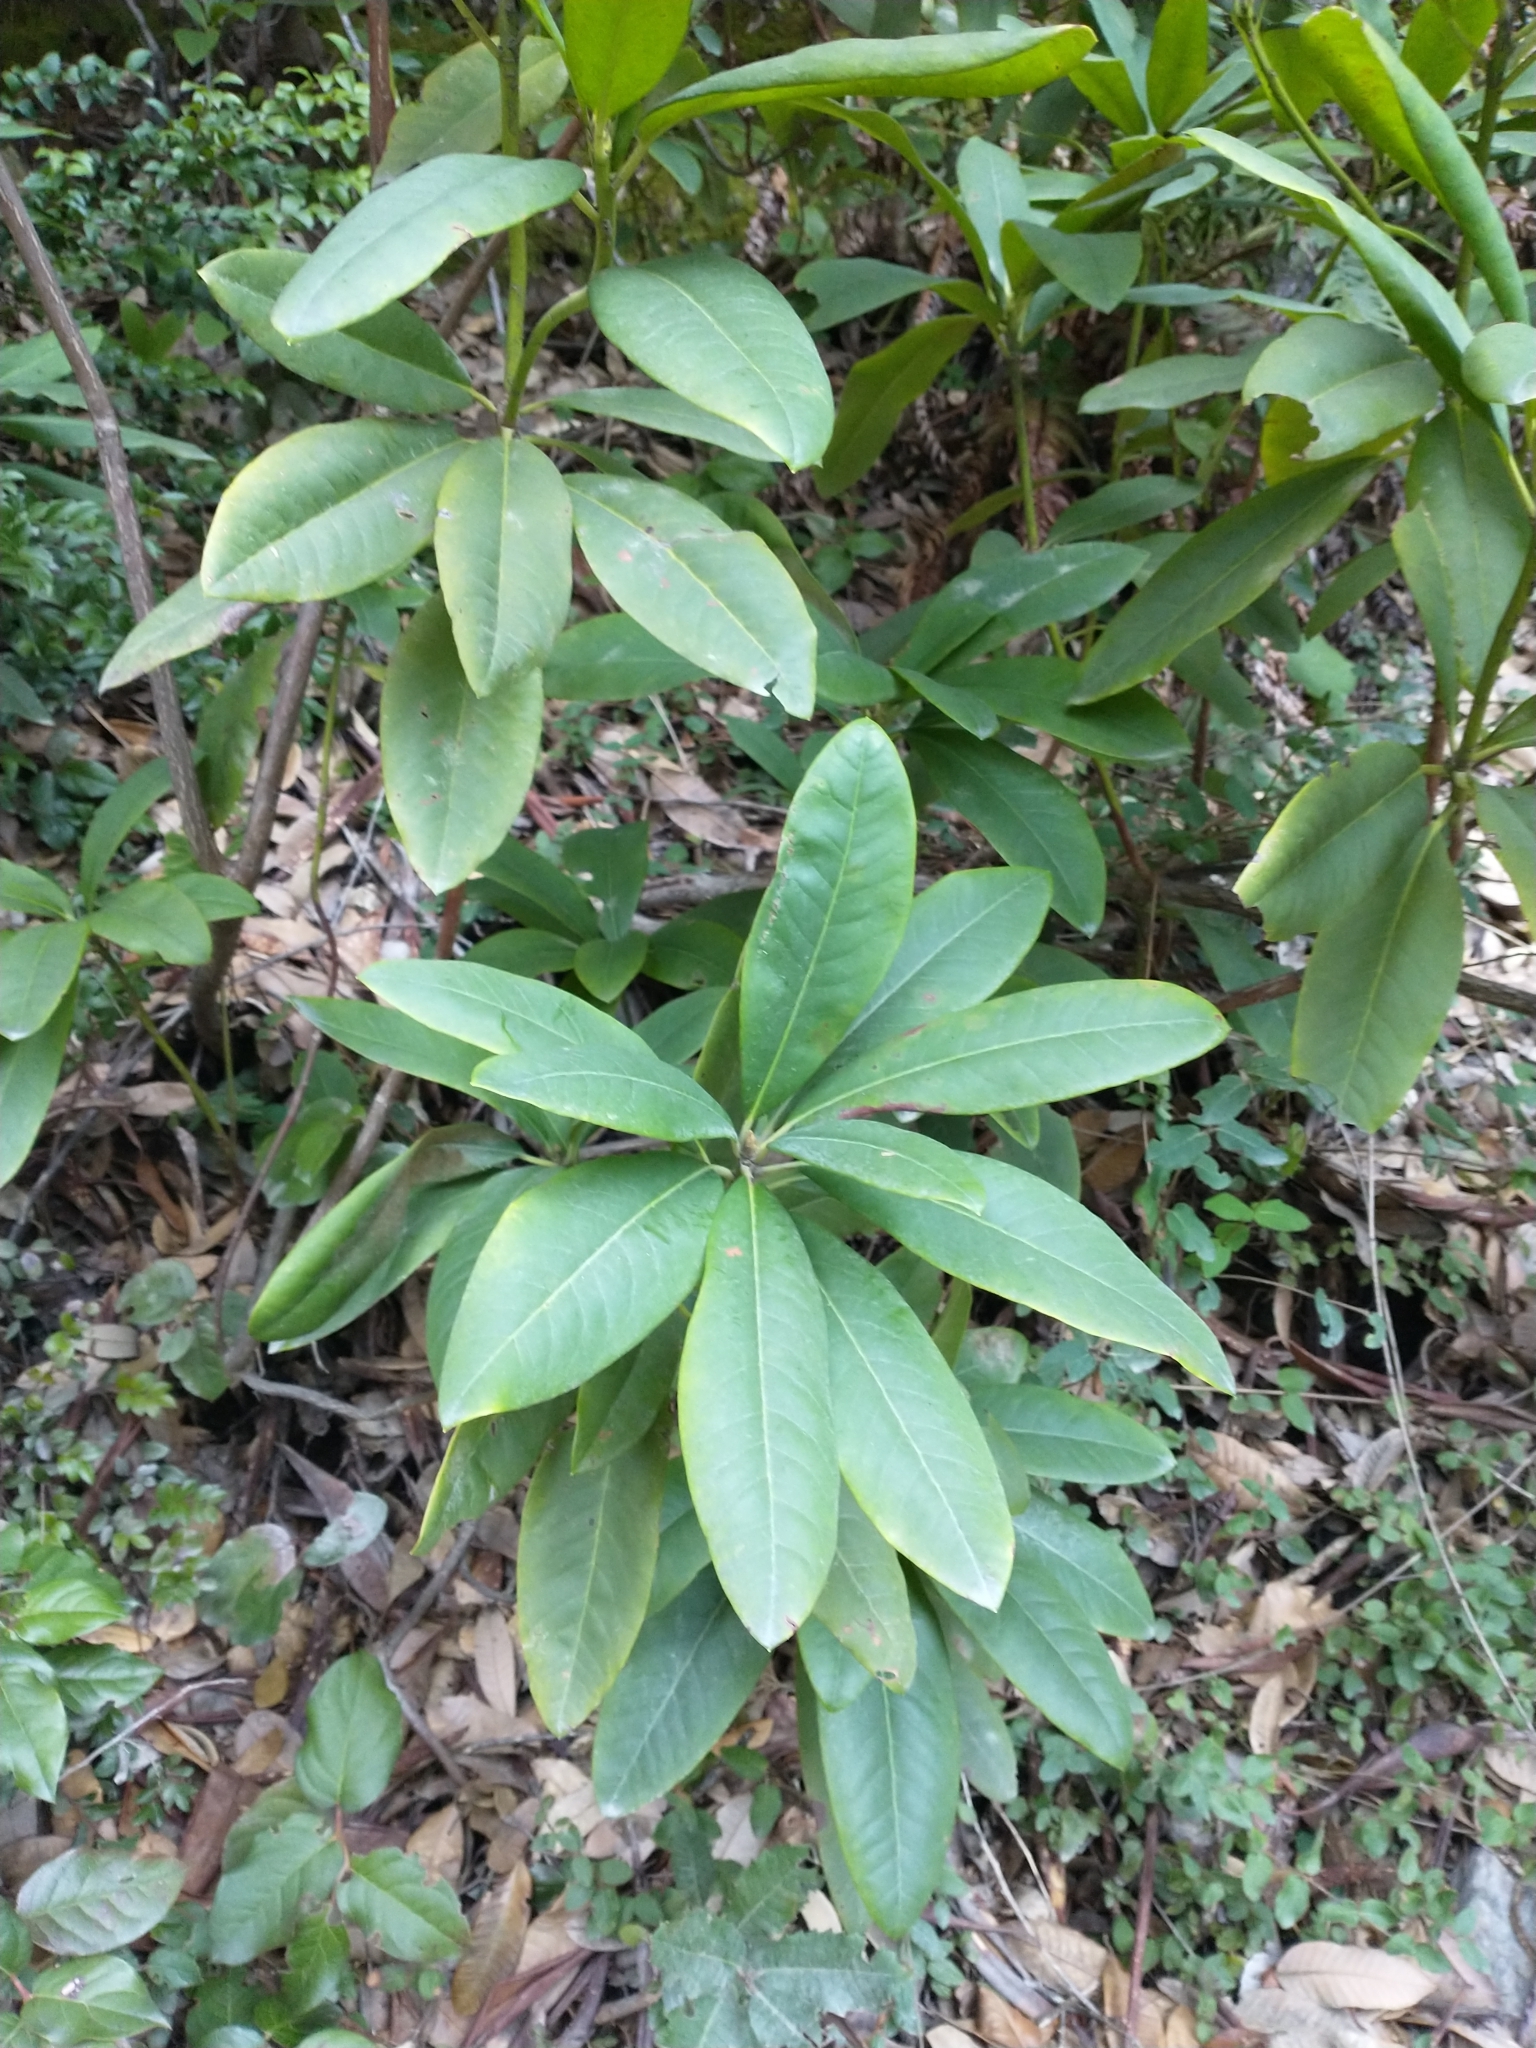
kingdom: Plantae
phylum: Tracheophyta
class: Magnoliopsida
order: Ericales
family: Ericaceae
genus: Rhododendron
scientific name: Rhododendron macrophyllum
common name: California rose bay
